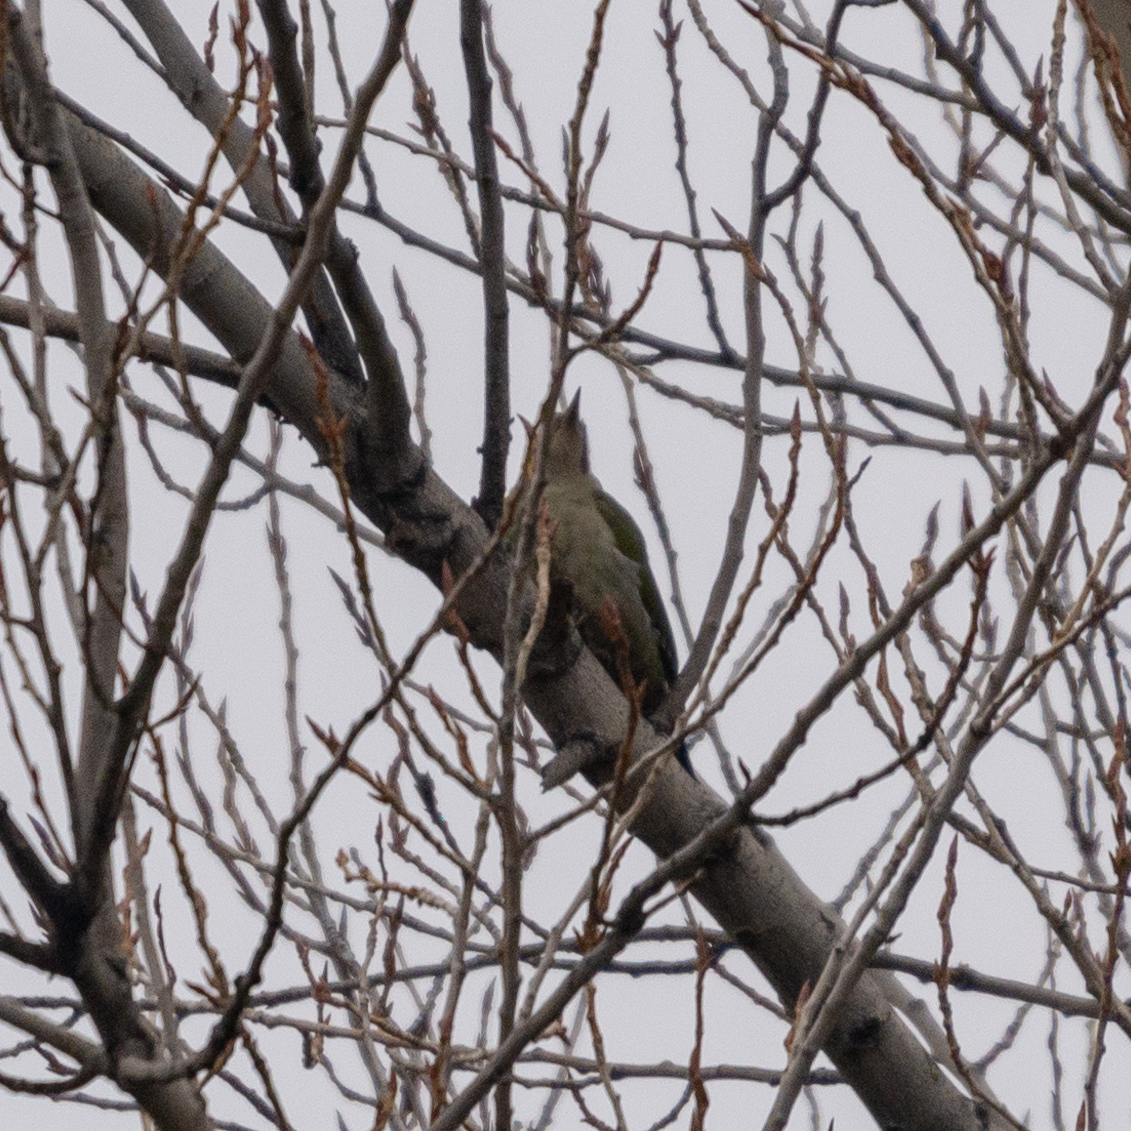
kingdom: Animalia
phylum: Chordata
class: Aves
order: Piciformes
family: Picidae
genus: Picus
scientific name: Picus sharpei
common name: Iberian green woodpecker
